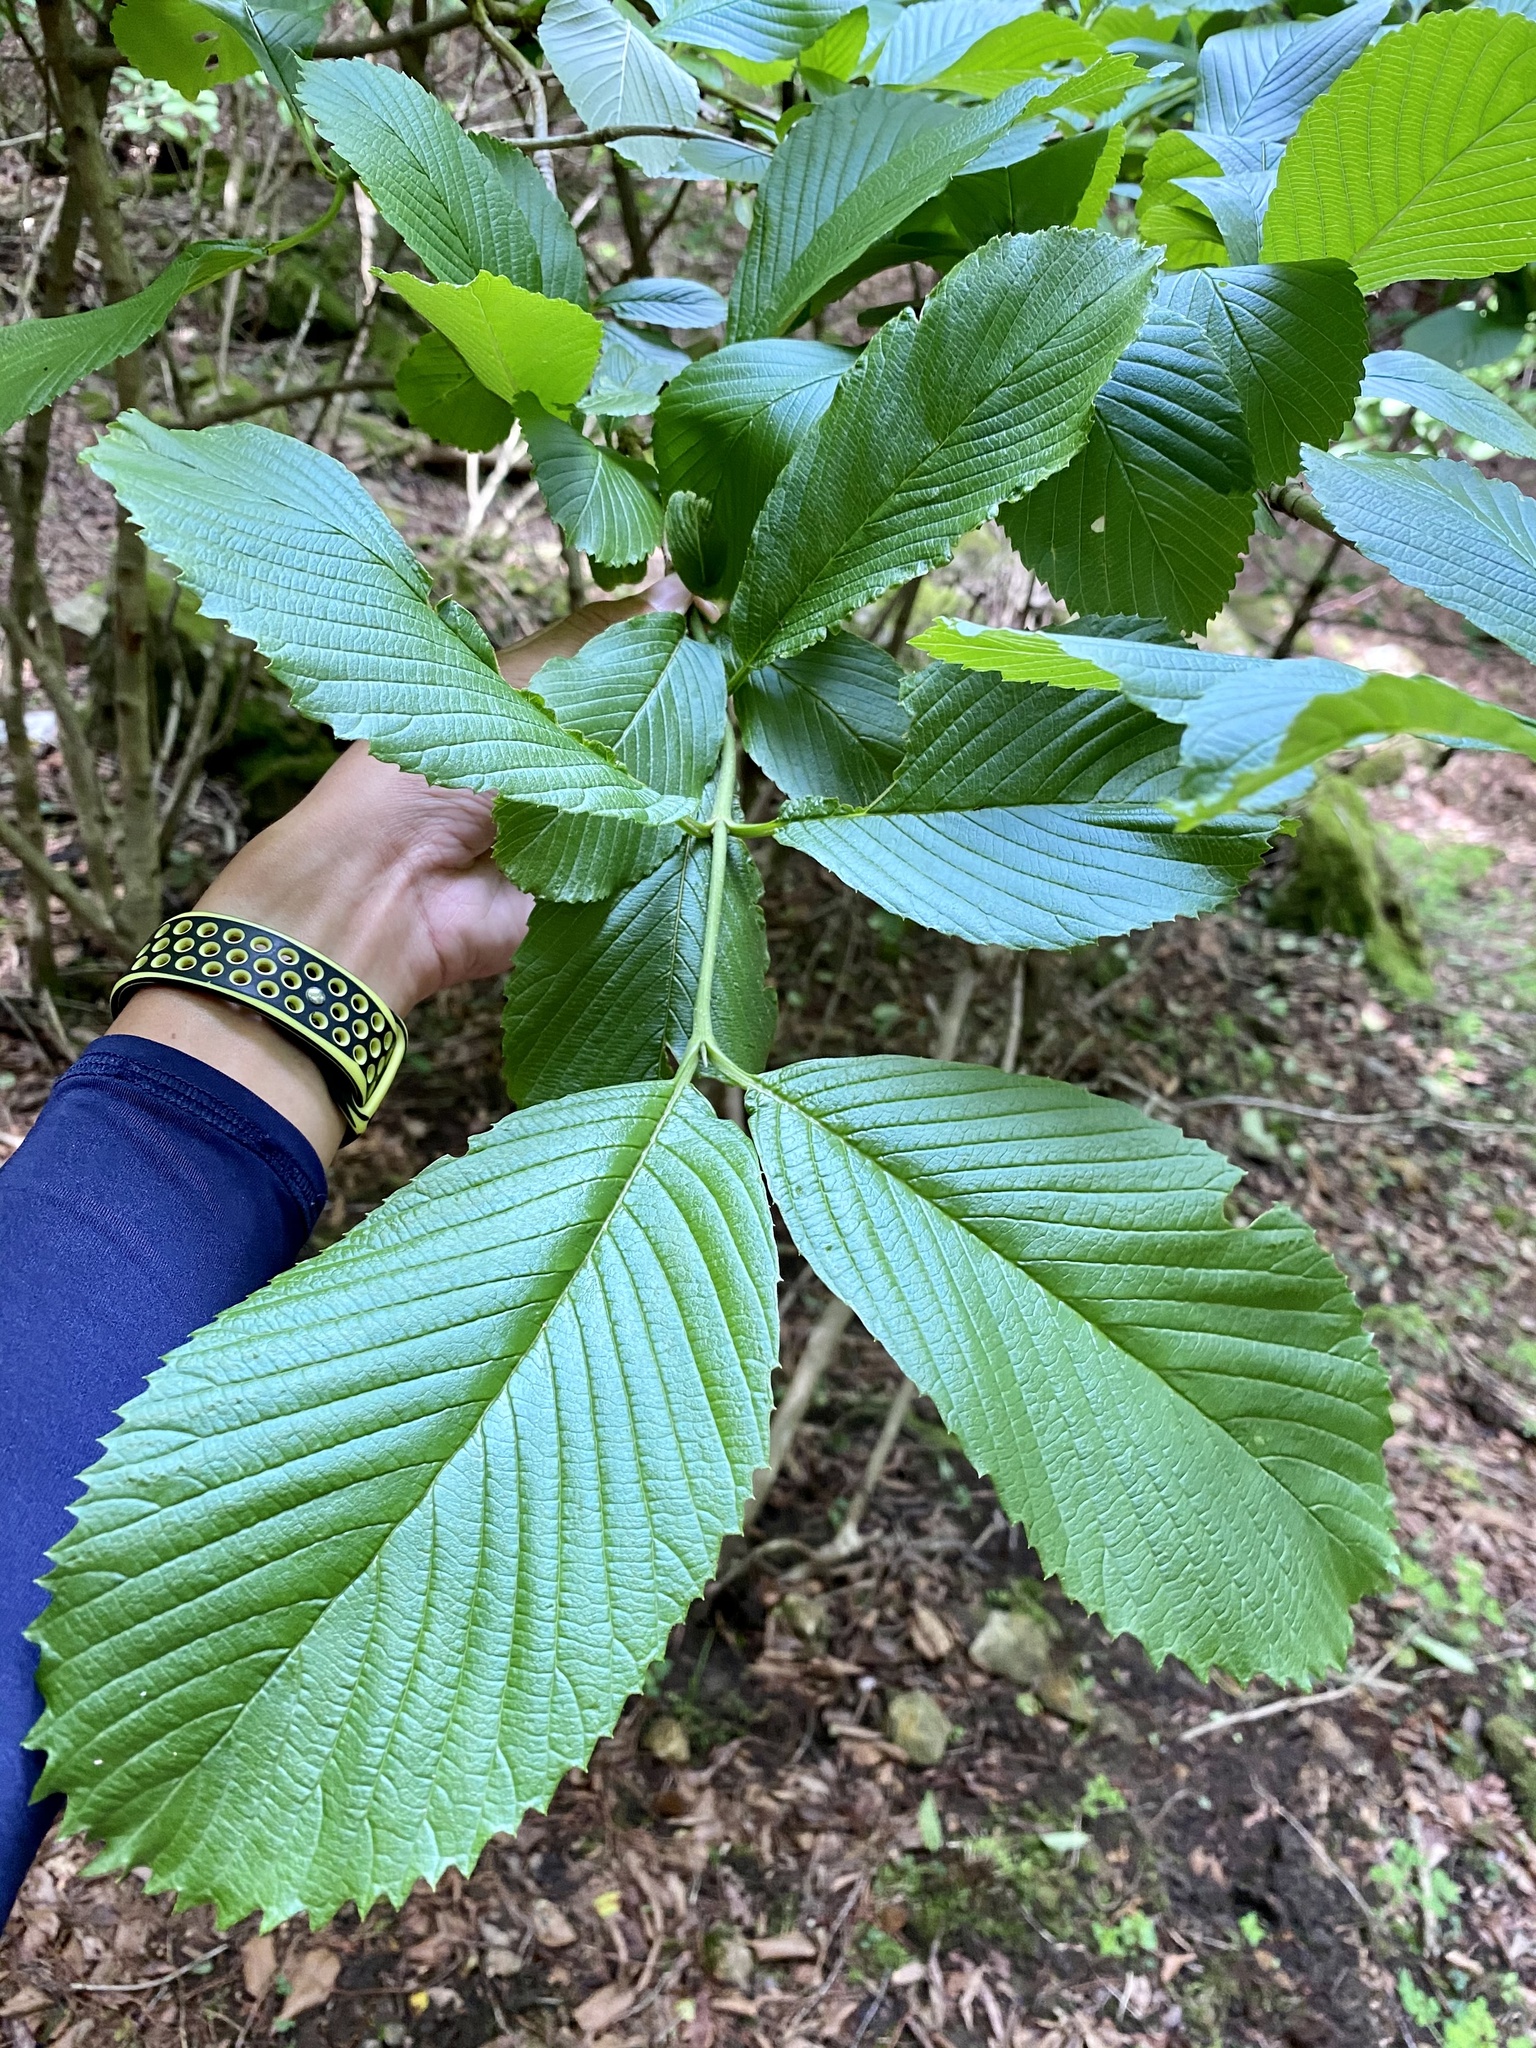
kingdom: Plantae
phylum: Tracheophyta
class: Magnoliopsida
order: Dipsacales
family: Viburnaceae
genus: Viburnum
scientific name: Viburnum sieboldii
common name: Siebold's arrowwood
